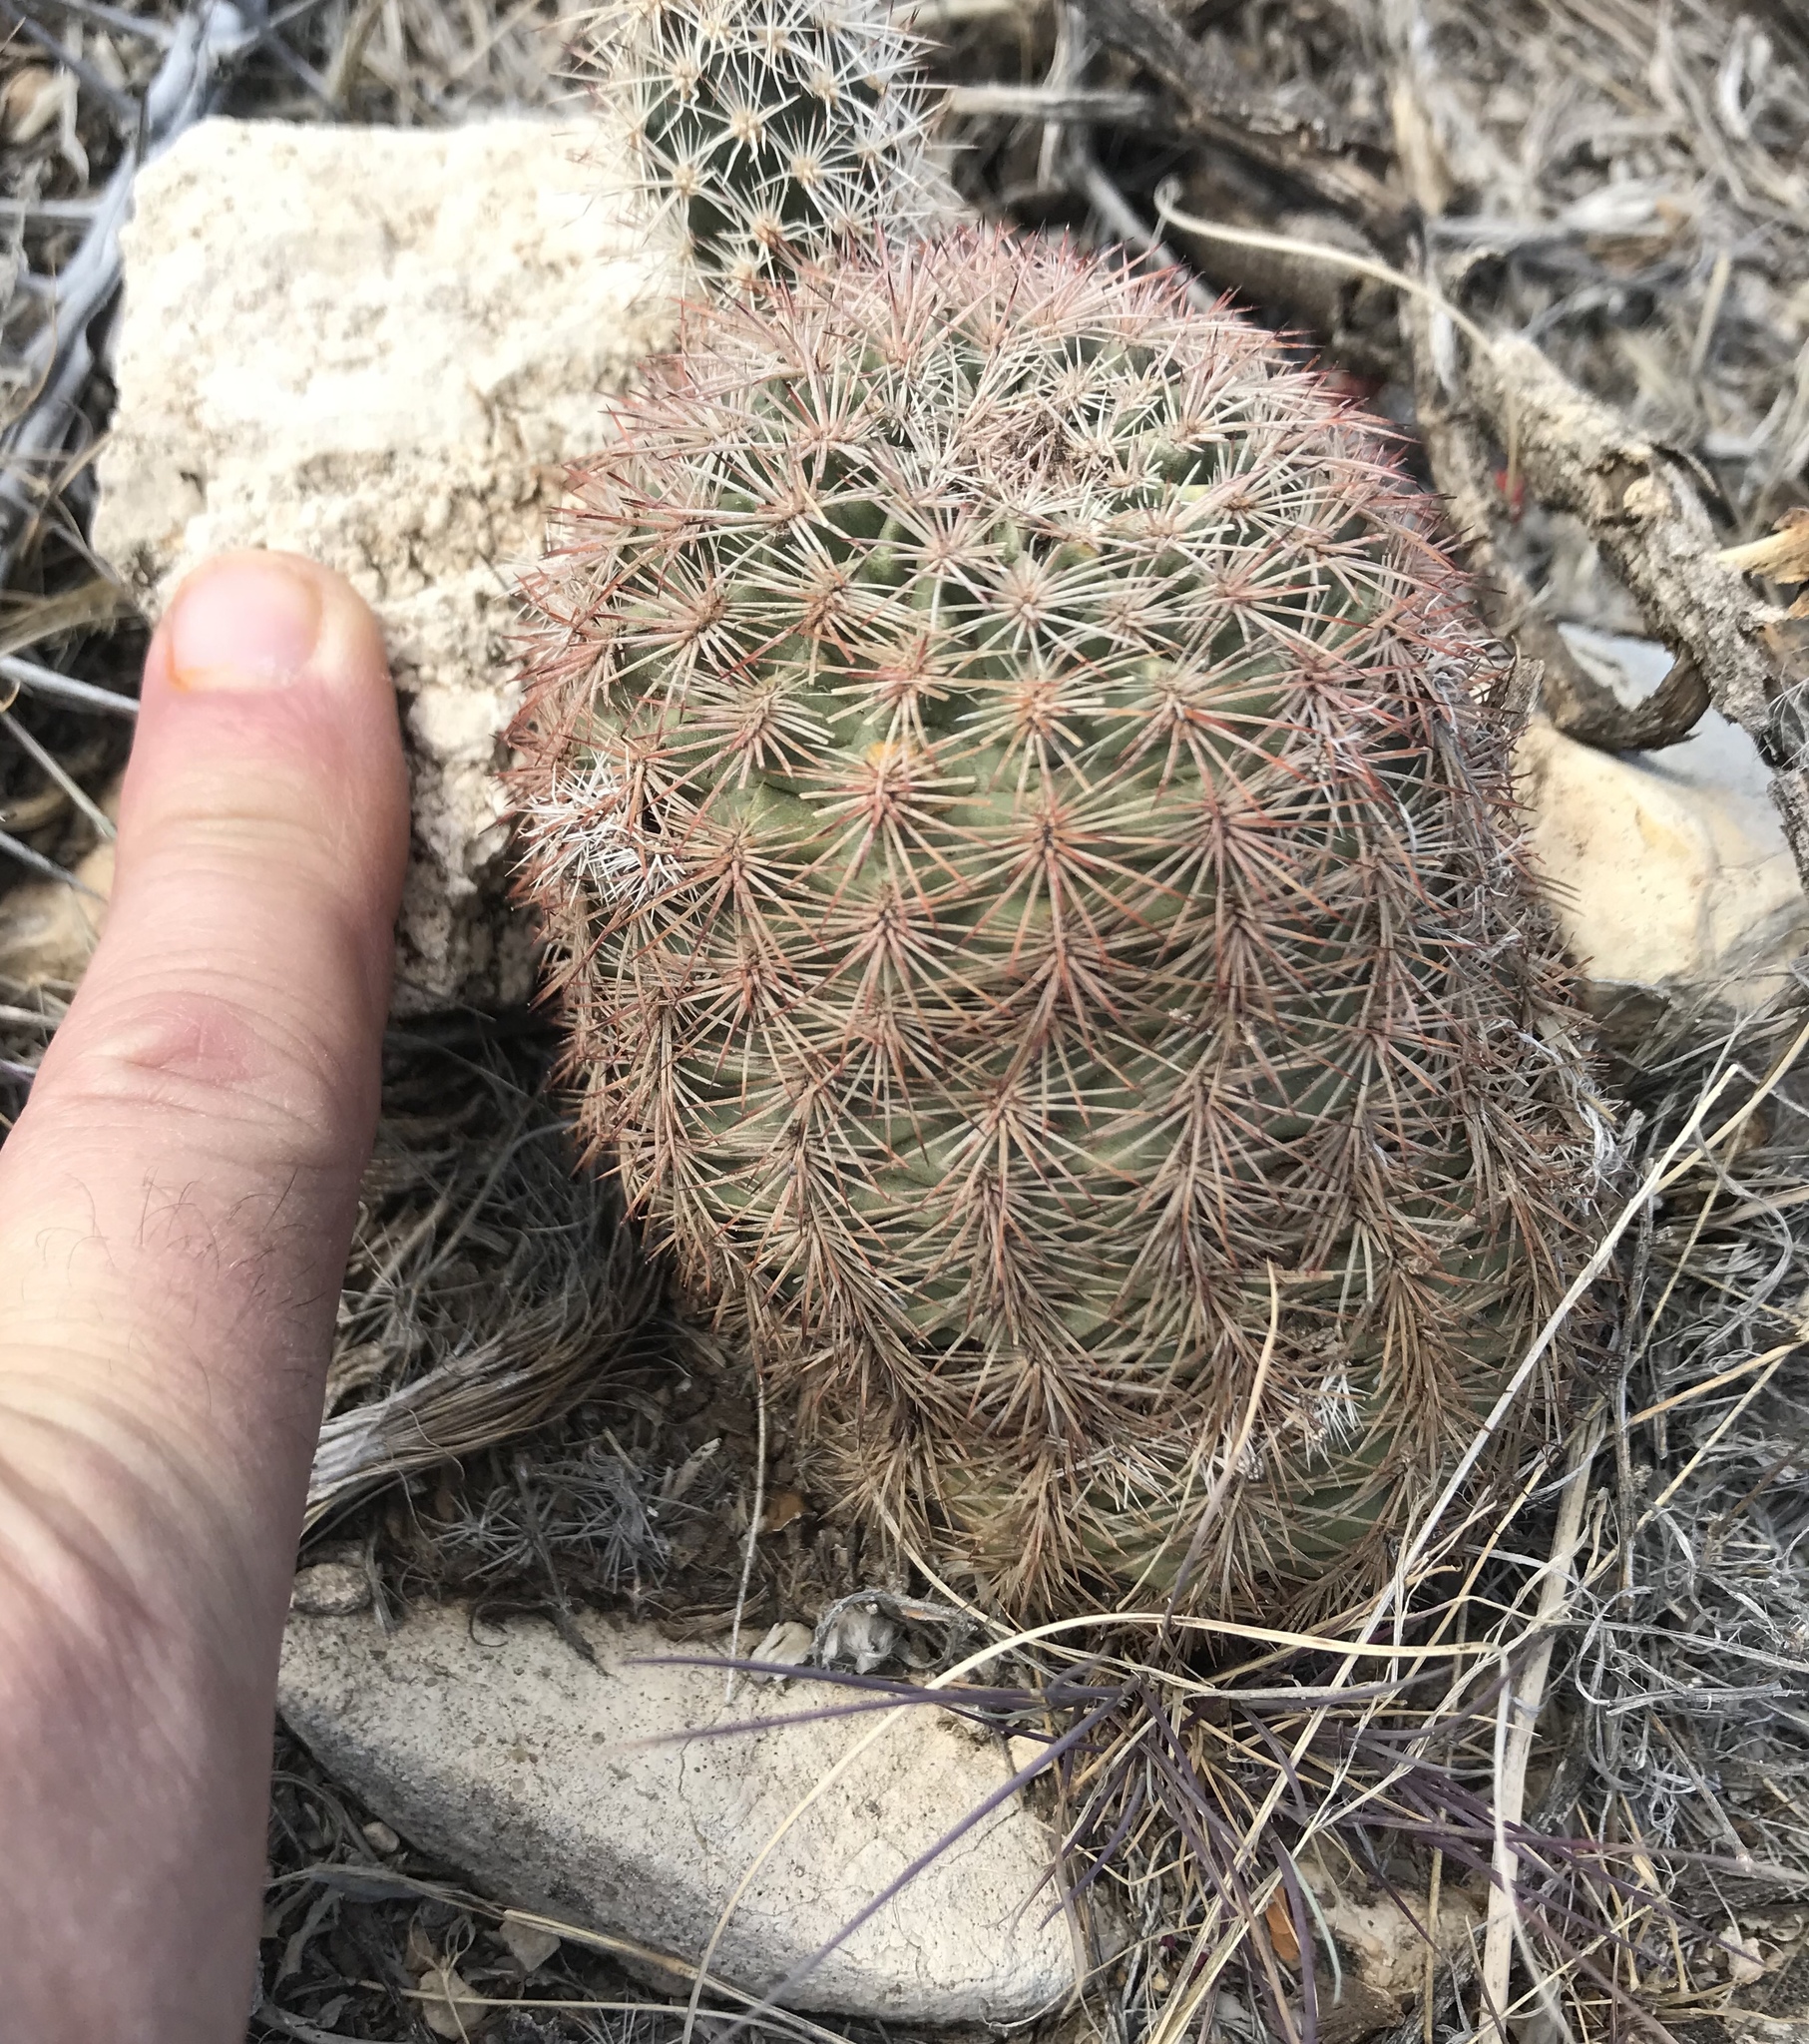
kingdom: Plantae
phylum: Tracheophyta
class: Magnoliopsida
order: Caryophyllales
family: Cactaceae
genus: Echinocereus
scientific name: Echinocereus dasyacanthus
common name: Spiny hedgehog cactus
